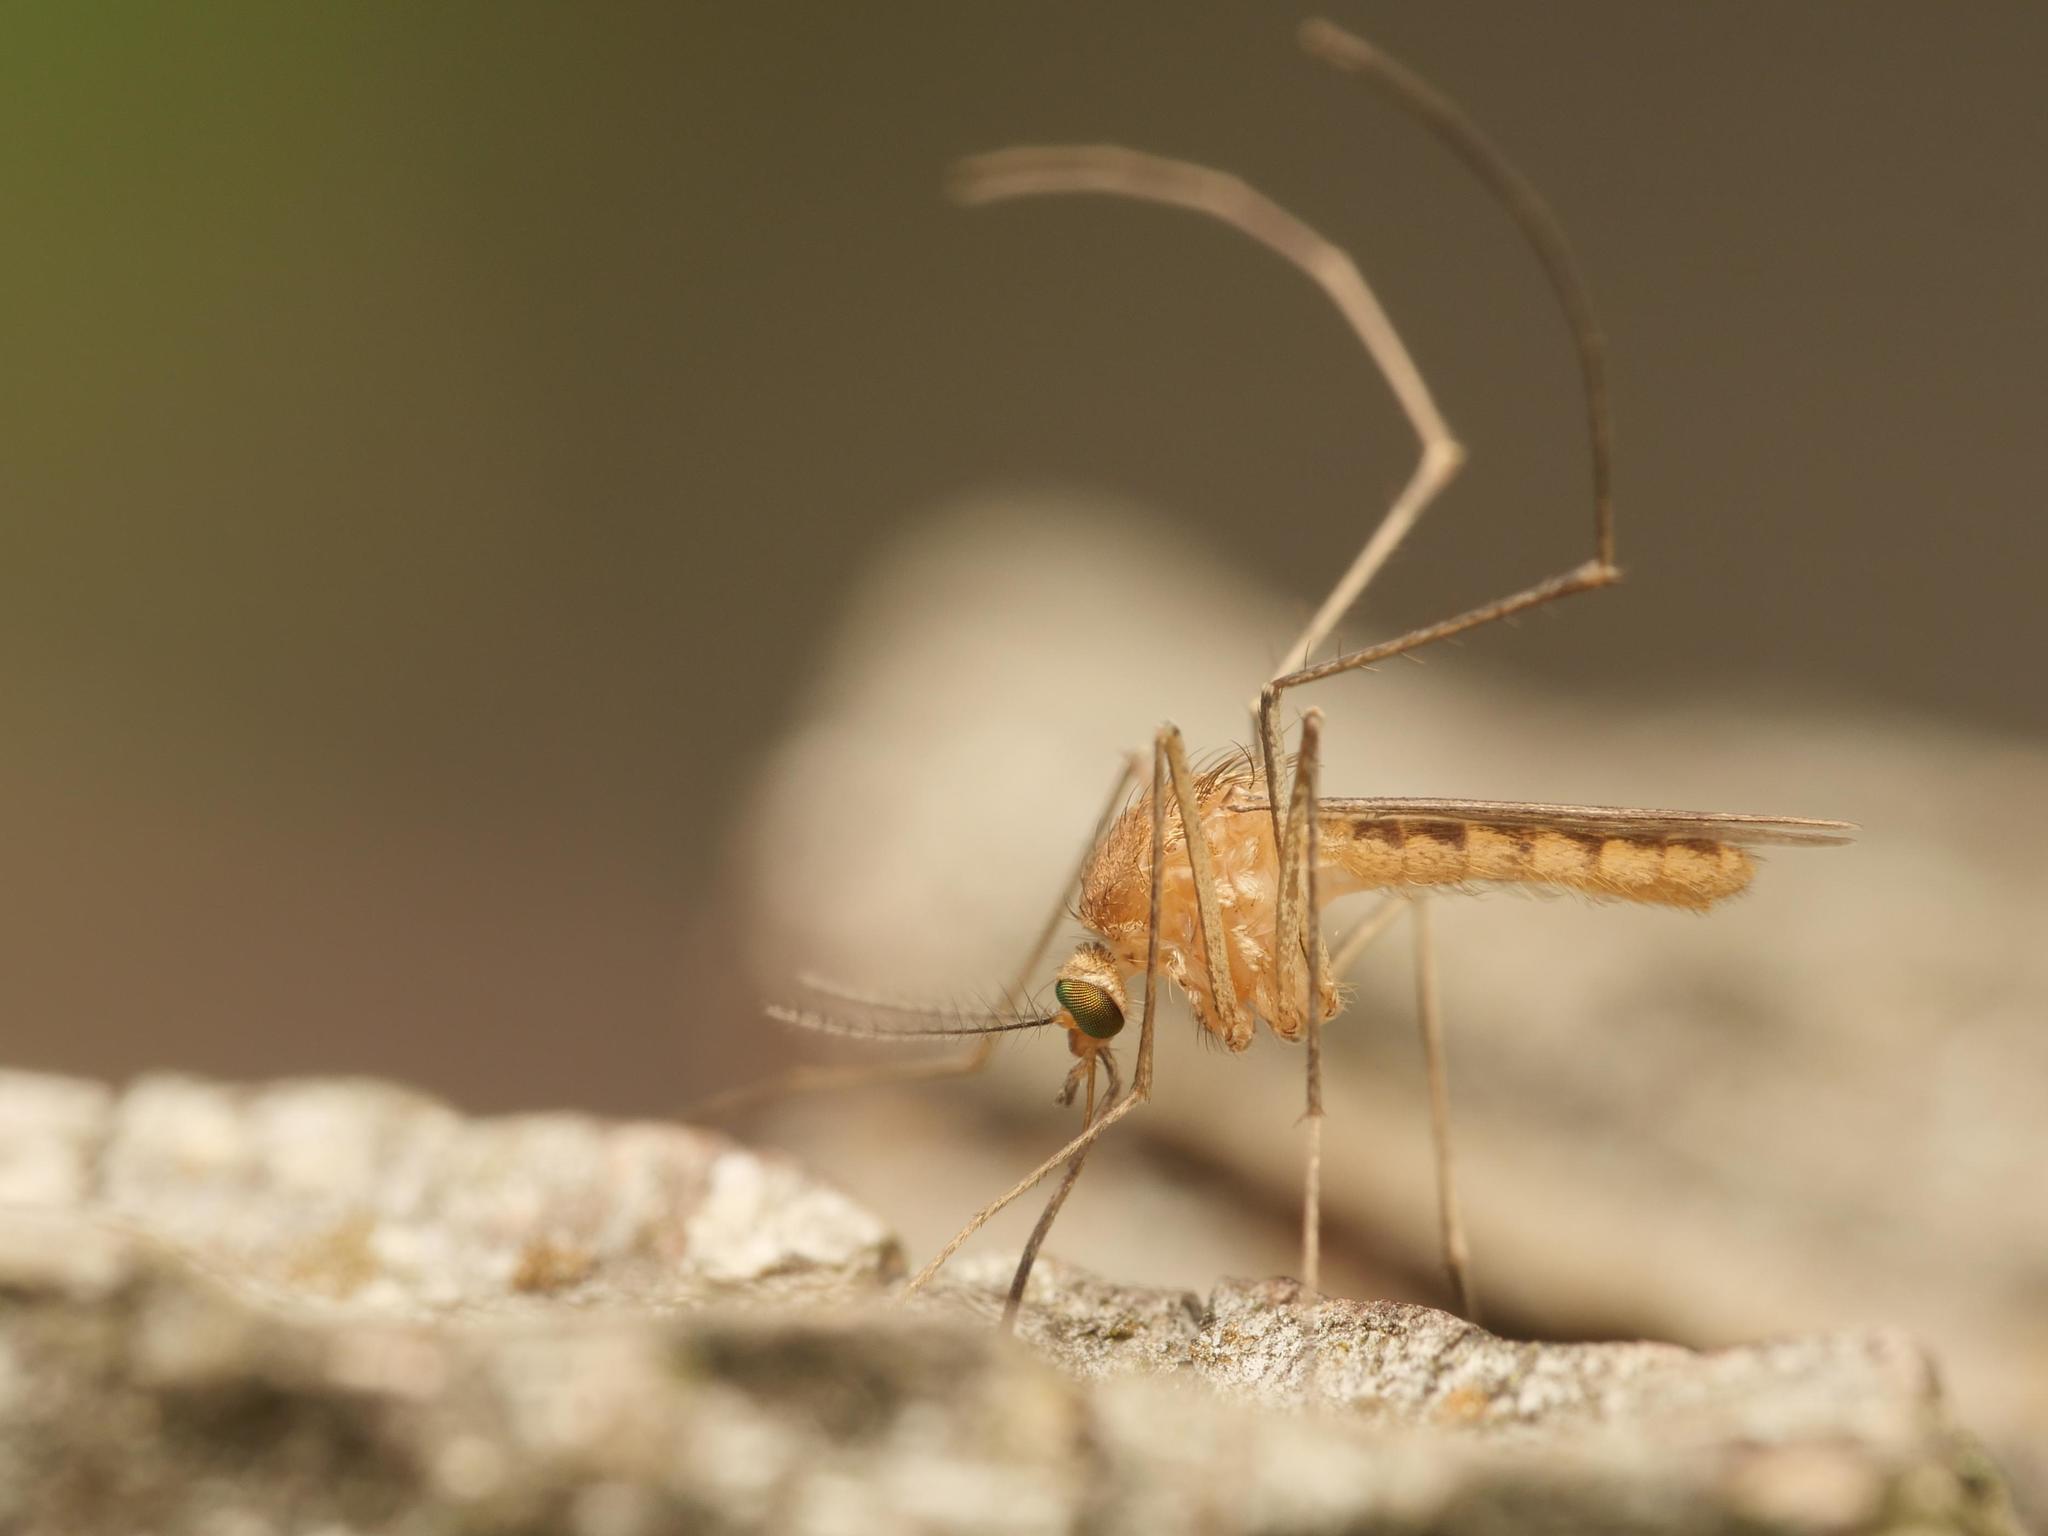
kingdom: Animalia
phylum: Arthropoda
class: Insecta
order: Diptera
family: Culicidae
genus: Culex
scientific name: Culex modestus
